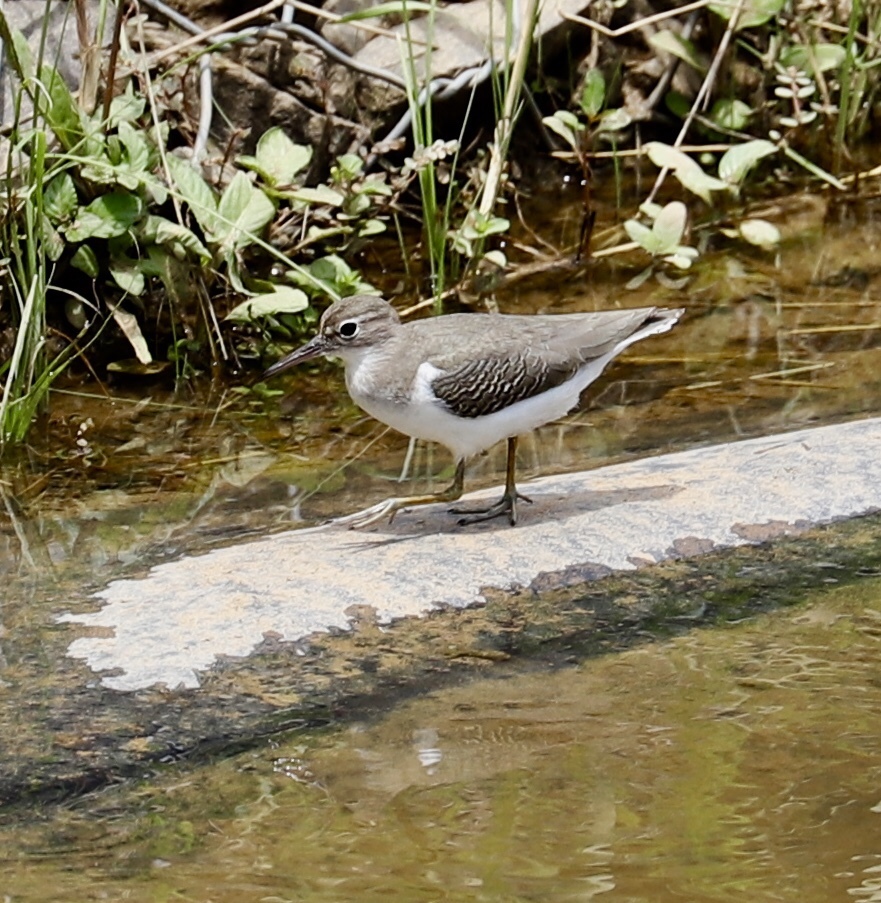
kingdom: Animalia
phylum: Chordata
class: Aves
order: Charadriiformes
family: Scolopacidae
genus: Actitis
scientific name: Actitis macularius
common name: Spotted sandpiper
